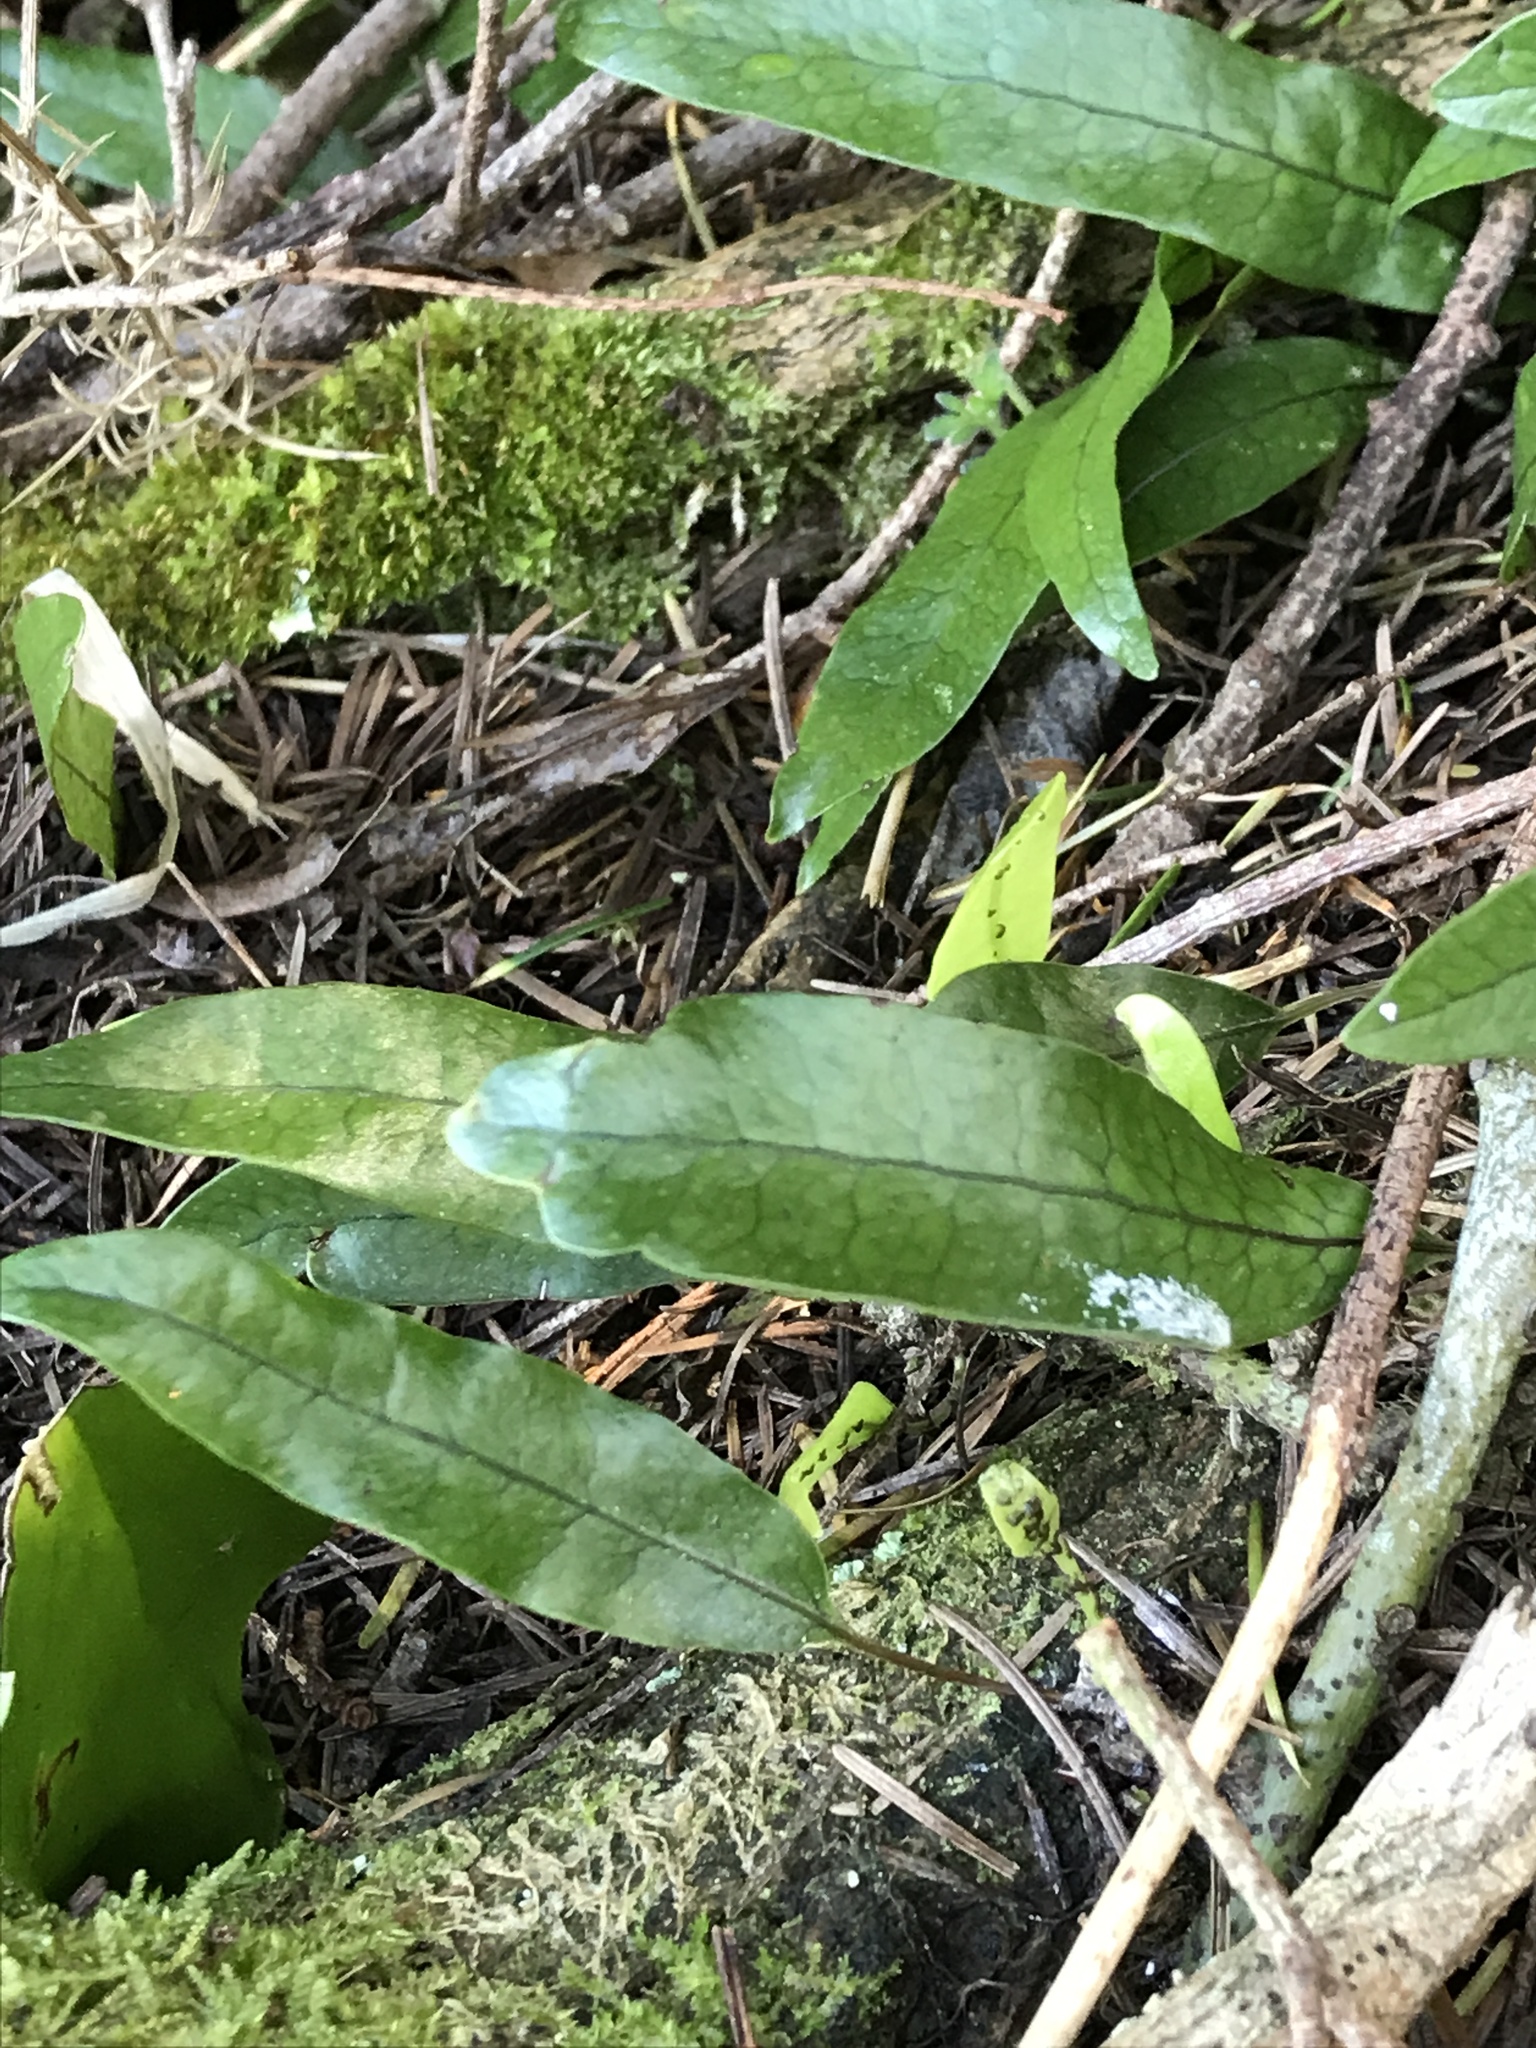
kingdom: Plantae
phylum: Tracheophyta
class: Polypodiopsida
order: Polypodiales
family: Polypodiaceae
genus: Lecanopteris
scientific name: Lecanopteris pustulata
